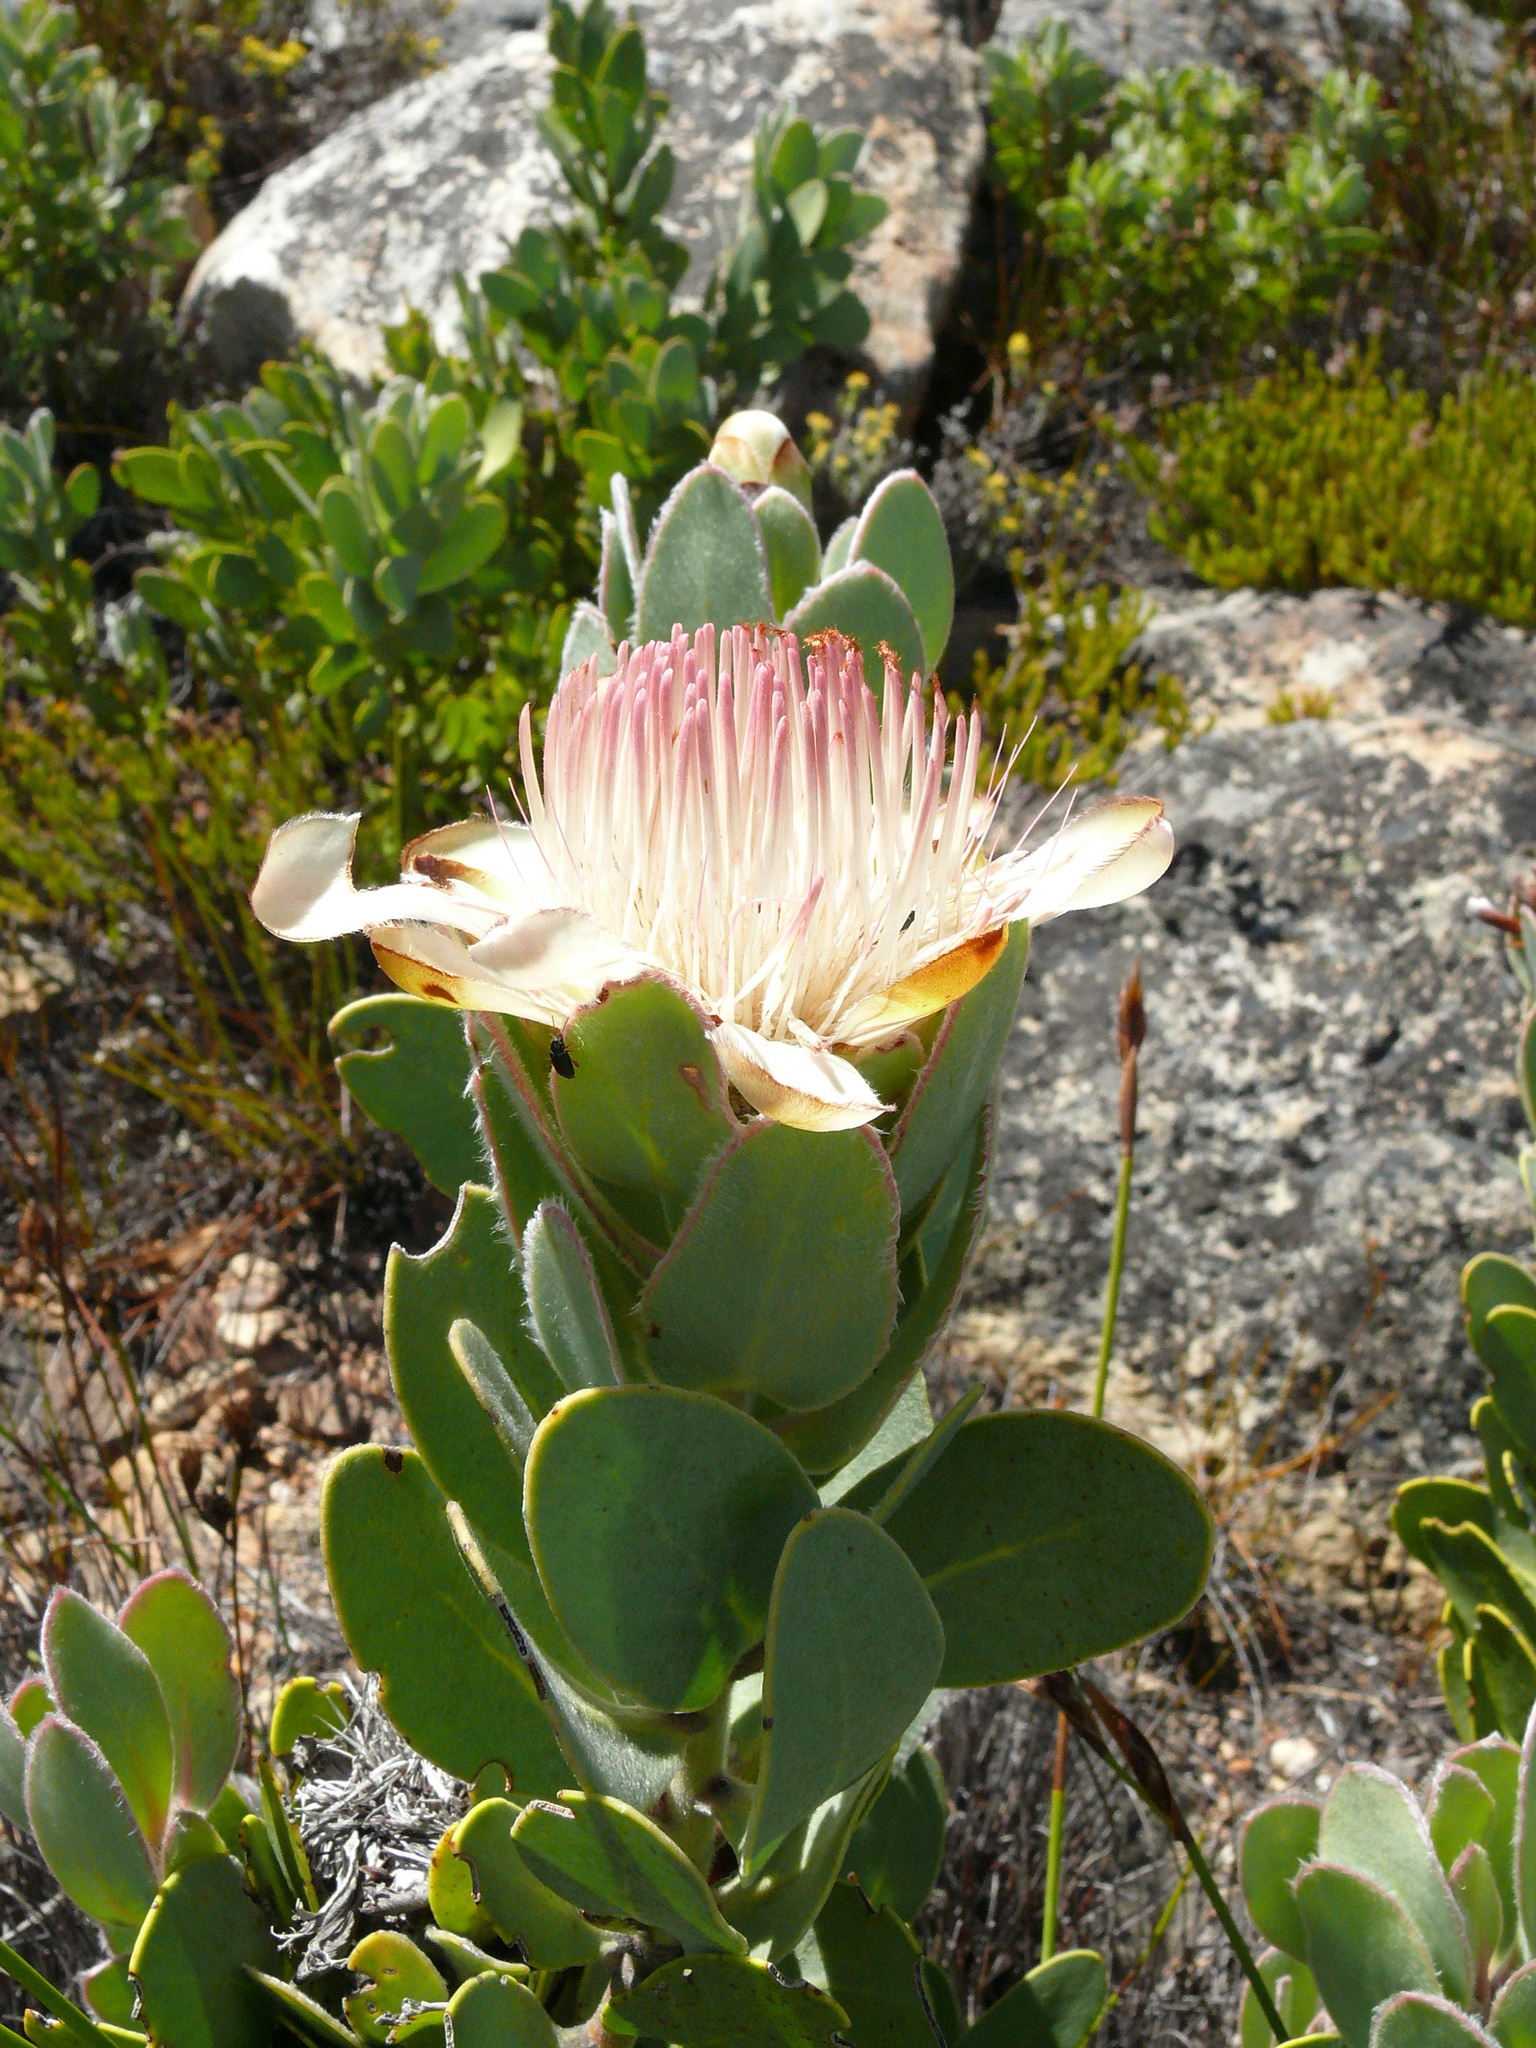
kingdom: Plantae
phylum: Tracheophyta
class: Magnoliopsida
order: Proteales
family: Proteaceae
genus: Protea
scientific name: Protea punctata
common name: Water sugarbush
